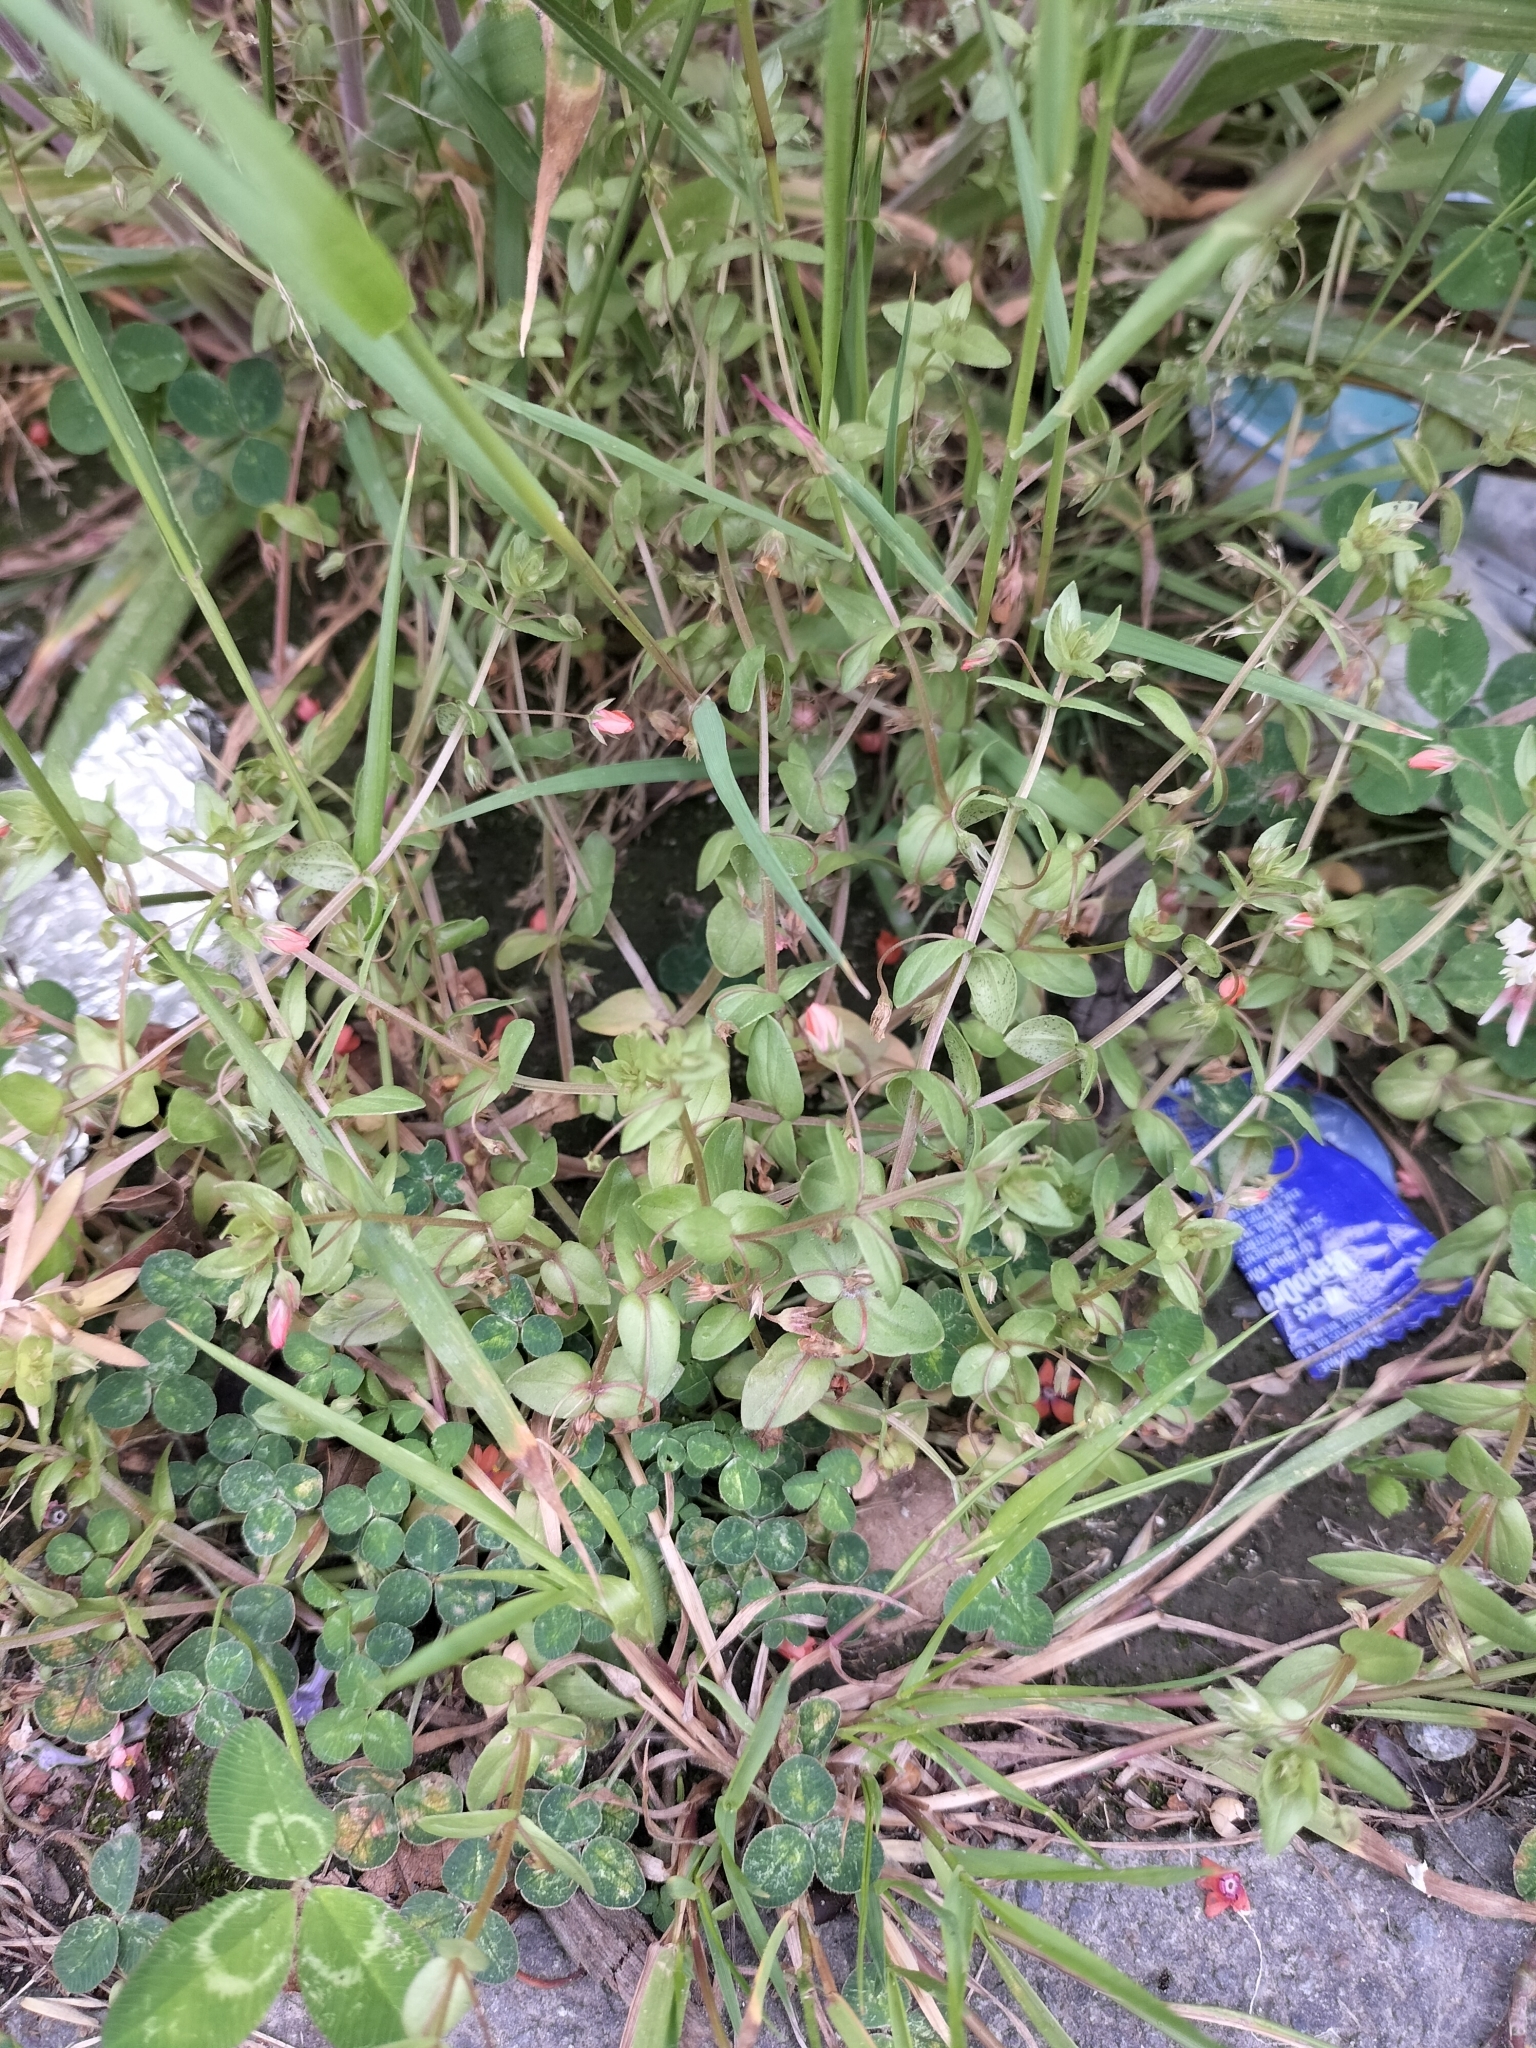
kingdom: Plantae
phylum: Tracheophyta
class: Magnoliopsida
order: Ericales
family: Primulaceae
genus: Lysimachia
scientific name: Lysimachia arvensis
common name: Scarlet pimpernel
